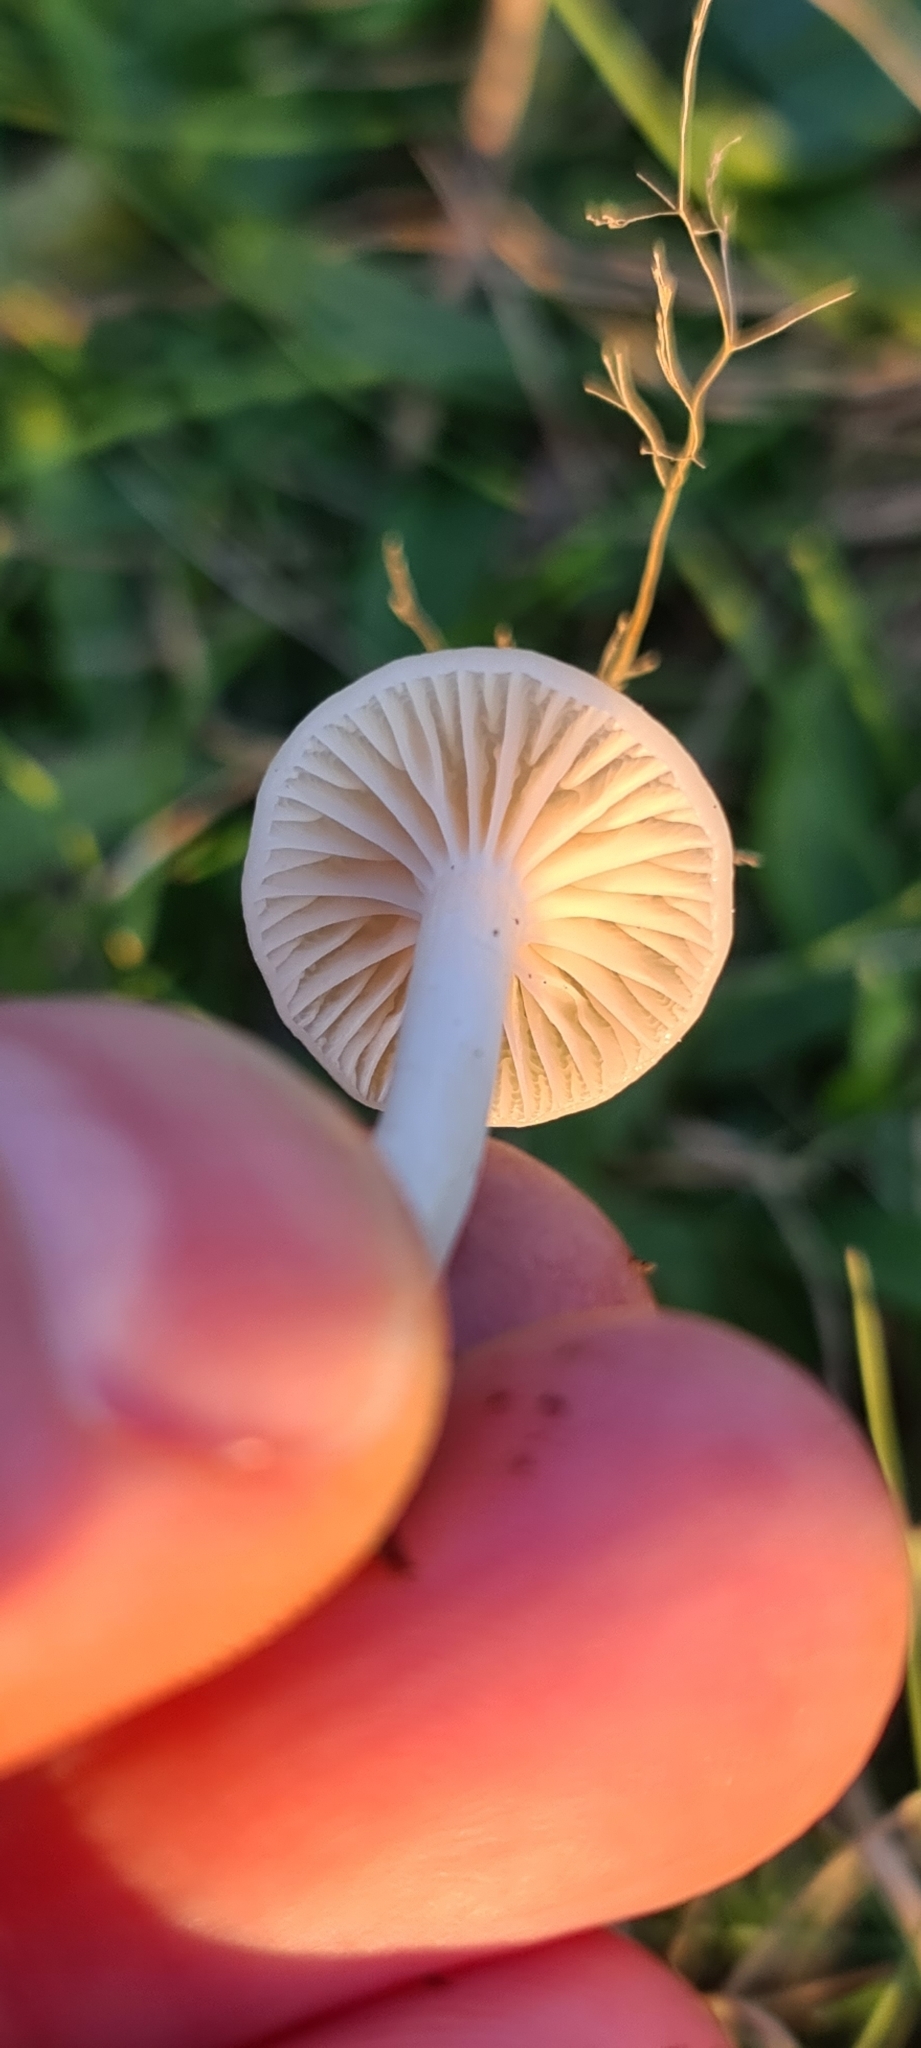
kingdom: Fungi
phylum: Basidiomycota
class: Agaricomycetes
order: Agaricales
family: Hygrophoraceae
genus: Cuphophyllus
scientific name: Cuphophyllus virgineus
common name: Snowy waxcap
